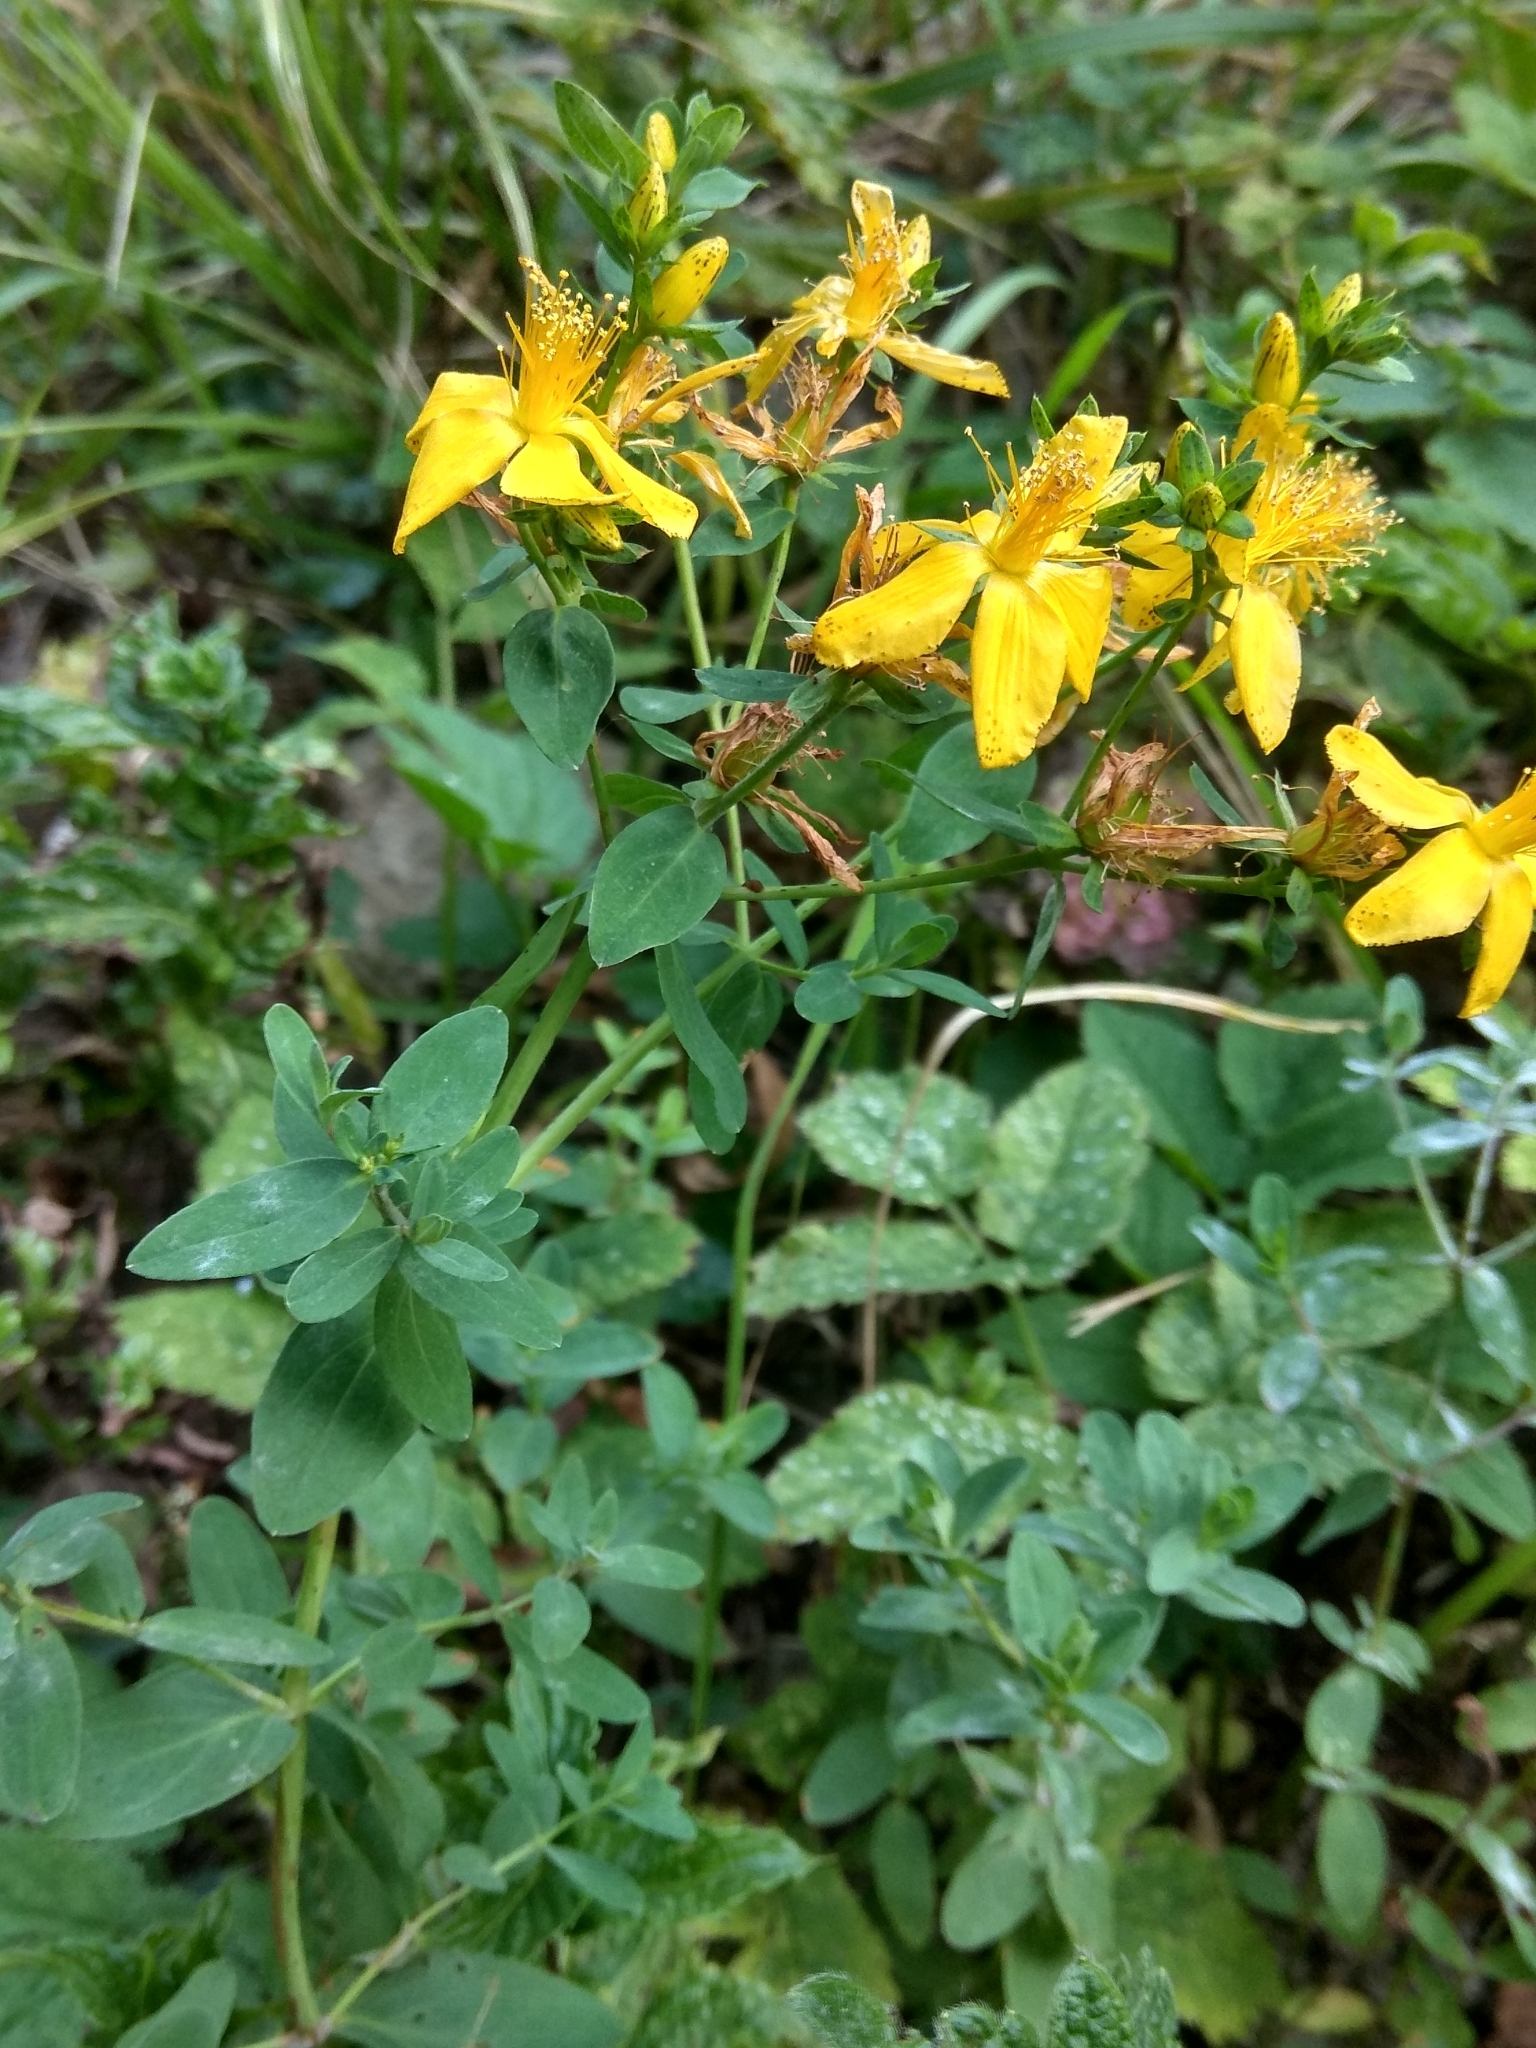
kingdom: Plantae
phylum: Tracheophyta
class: Magnoliopsida
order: Malpighiales
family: Hypericaceae
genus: Hypericum
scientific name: Hypericum perforatum
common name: Common st. johnswort
